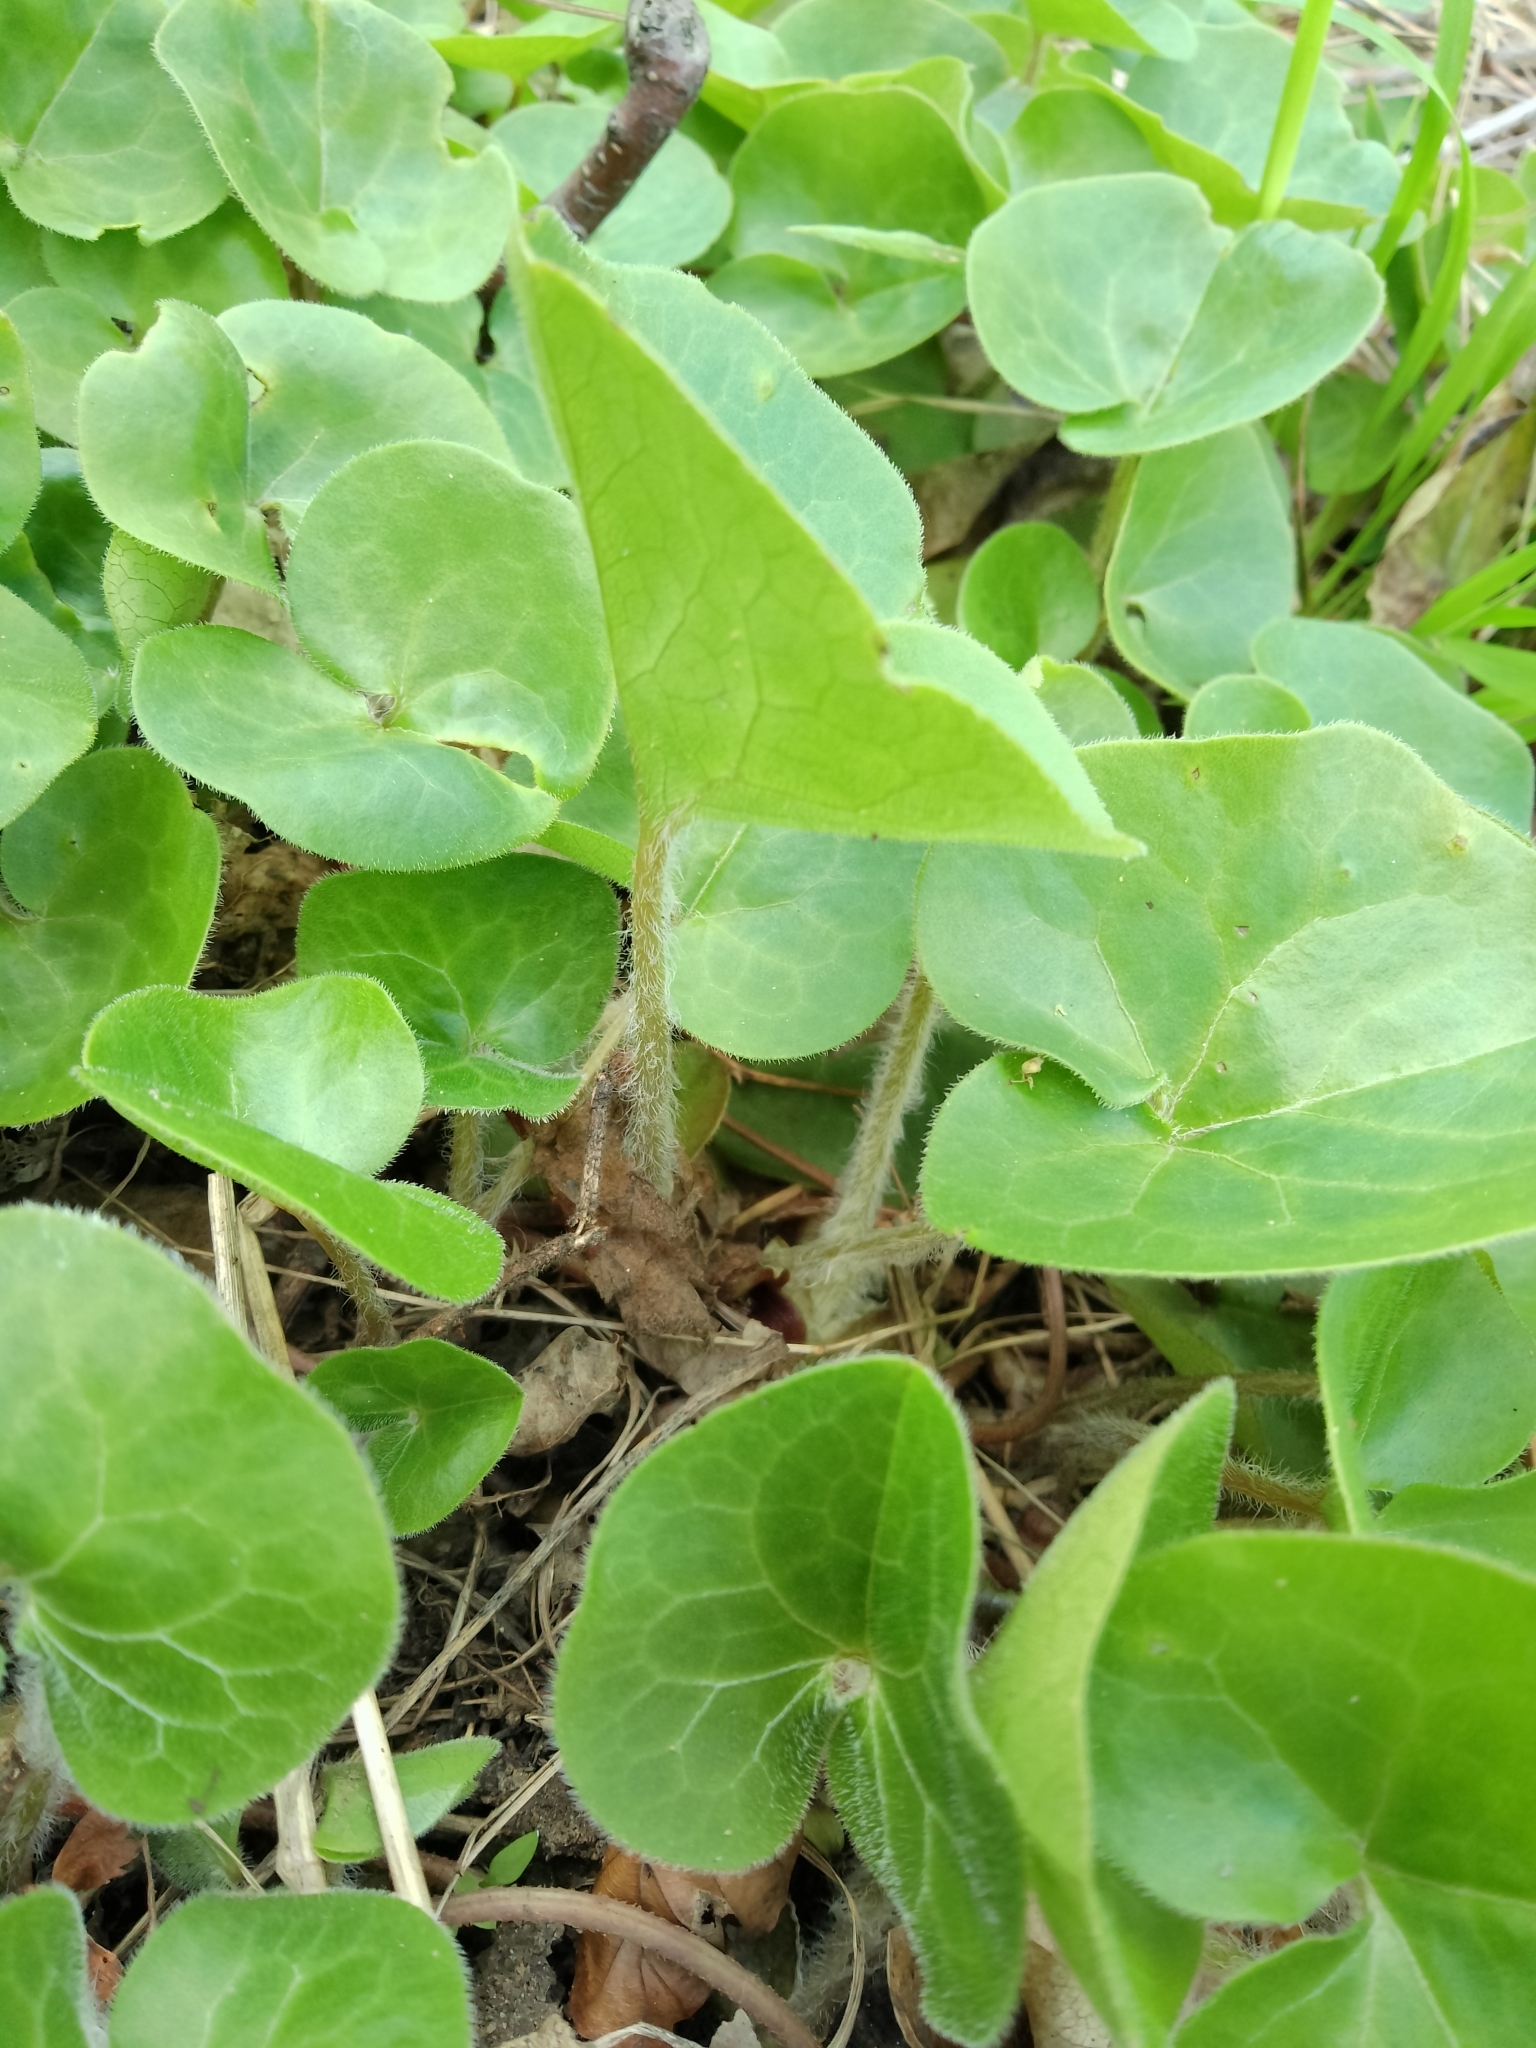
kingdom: Plantae
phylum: Tracheophyta
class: Magnoliopsida
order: Piperales
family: Aristolochiaceae
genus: Asarum
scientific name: Asarum europaeum
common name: Asarabacca
